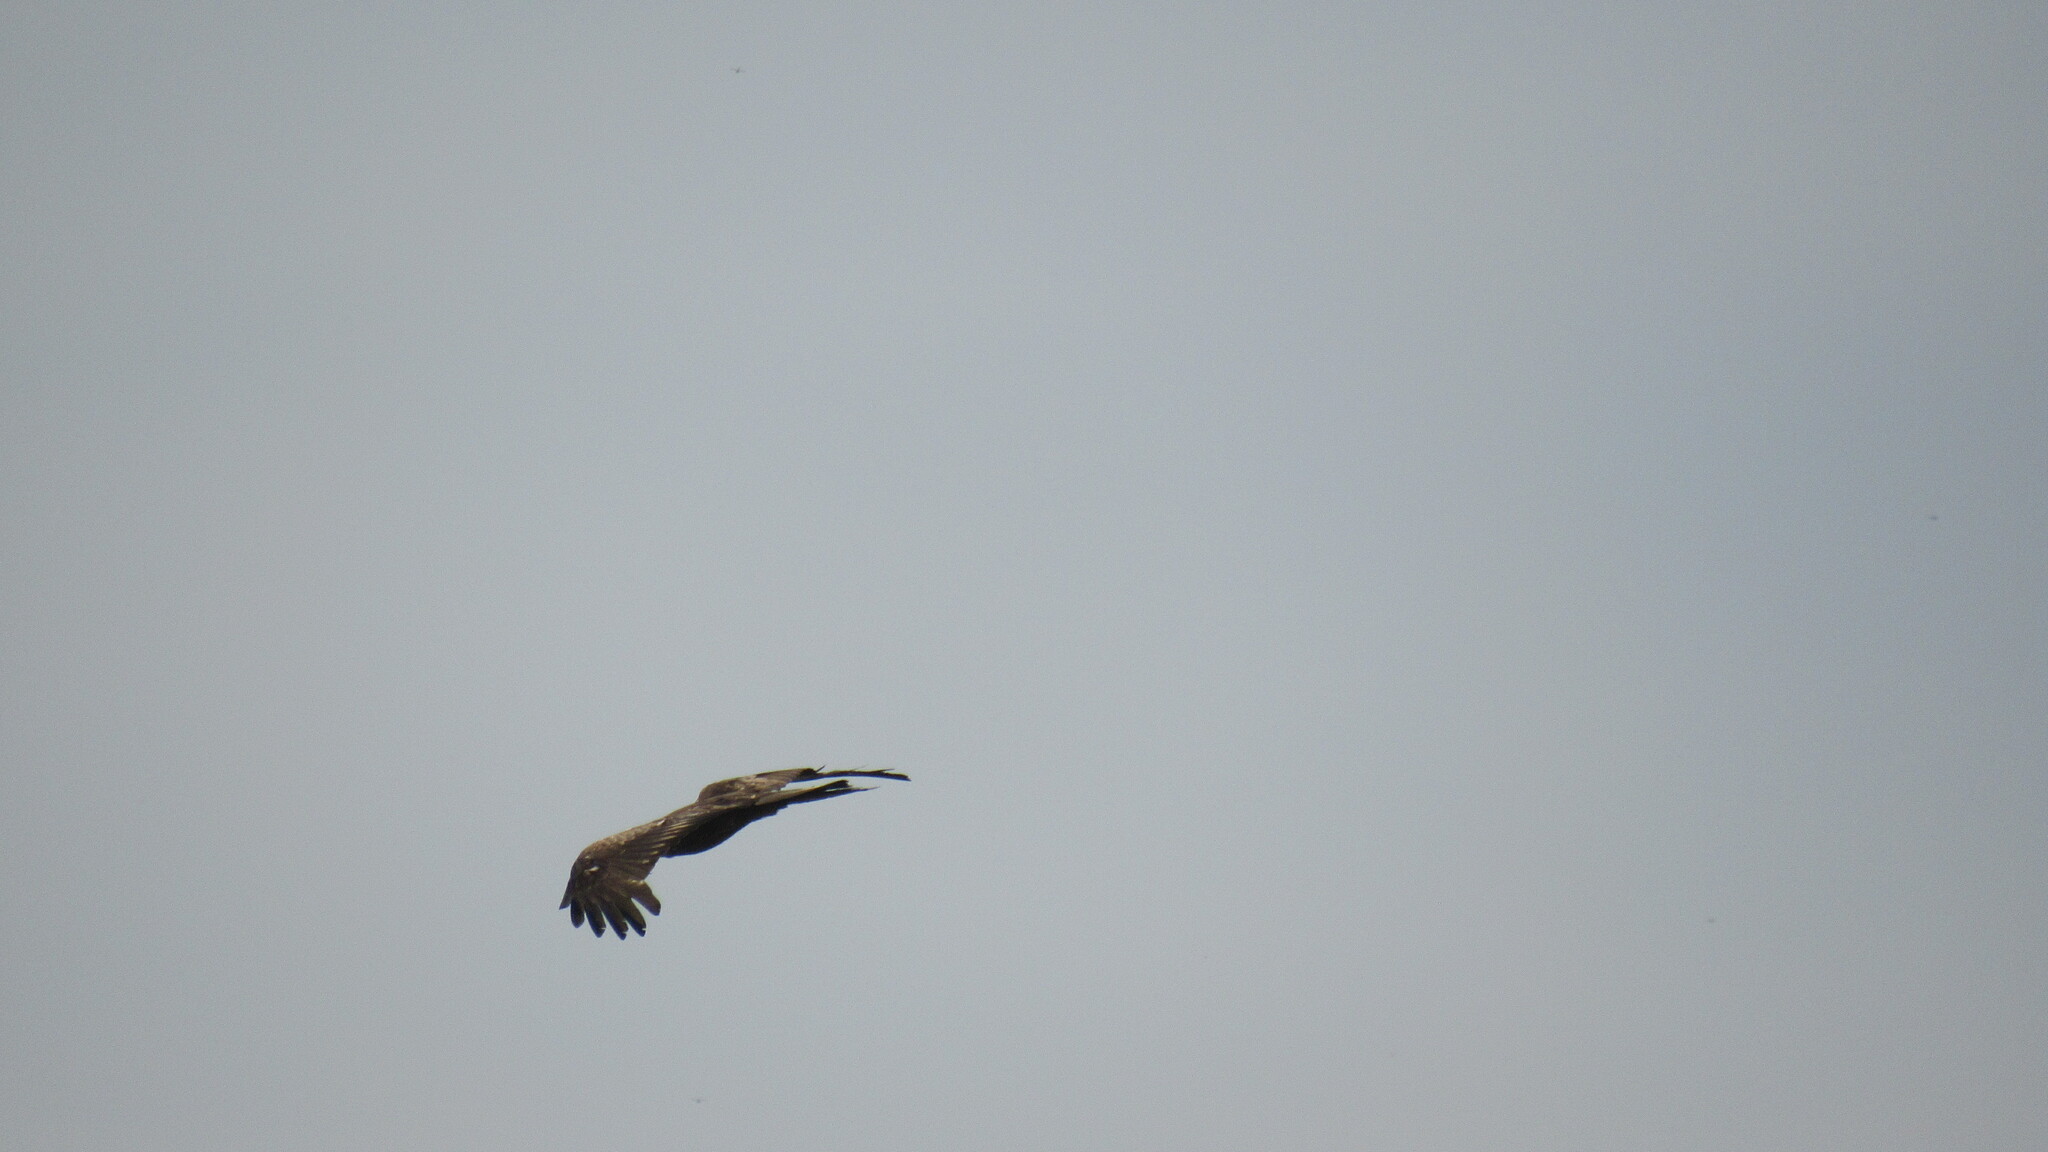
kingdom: Animalia
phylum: Chordata
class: Aves
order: Accipitriformes
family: Accipitridae
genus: Milvus
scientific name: Milvus migrans
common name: Black kite
